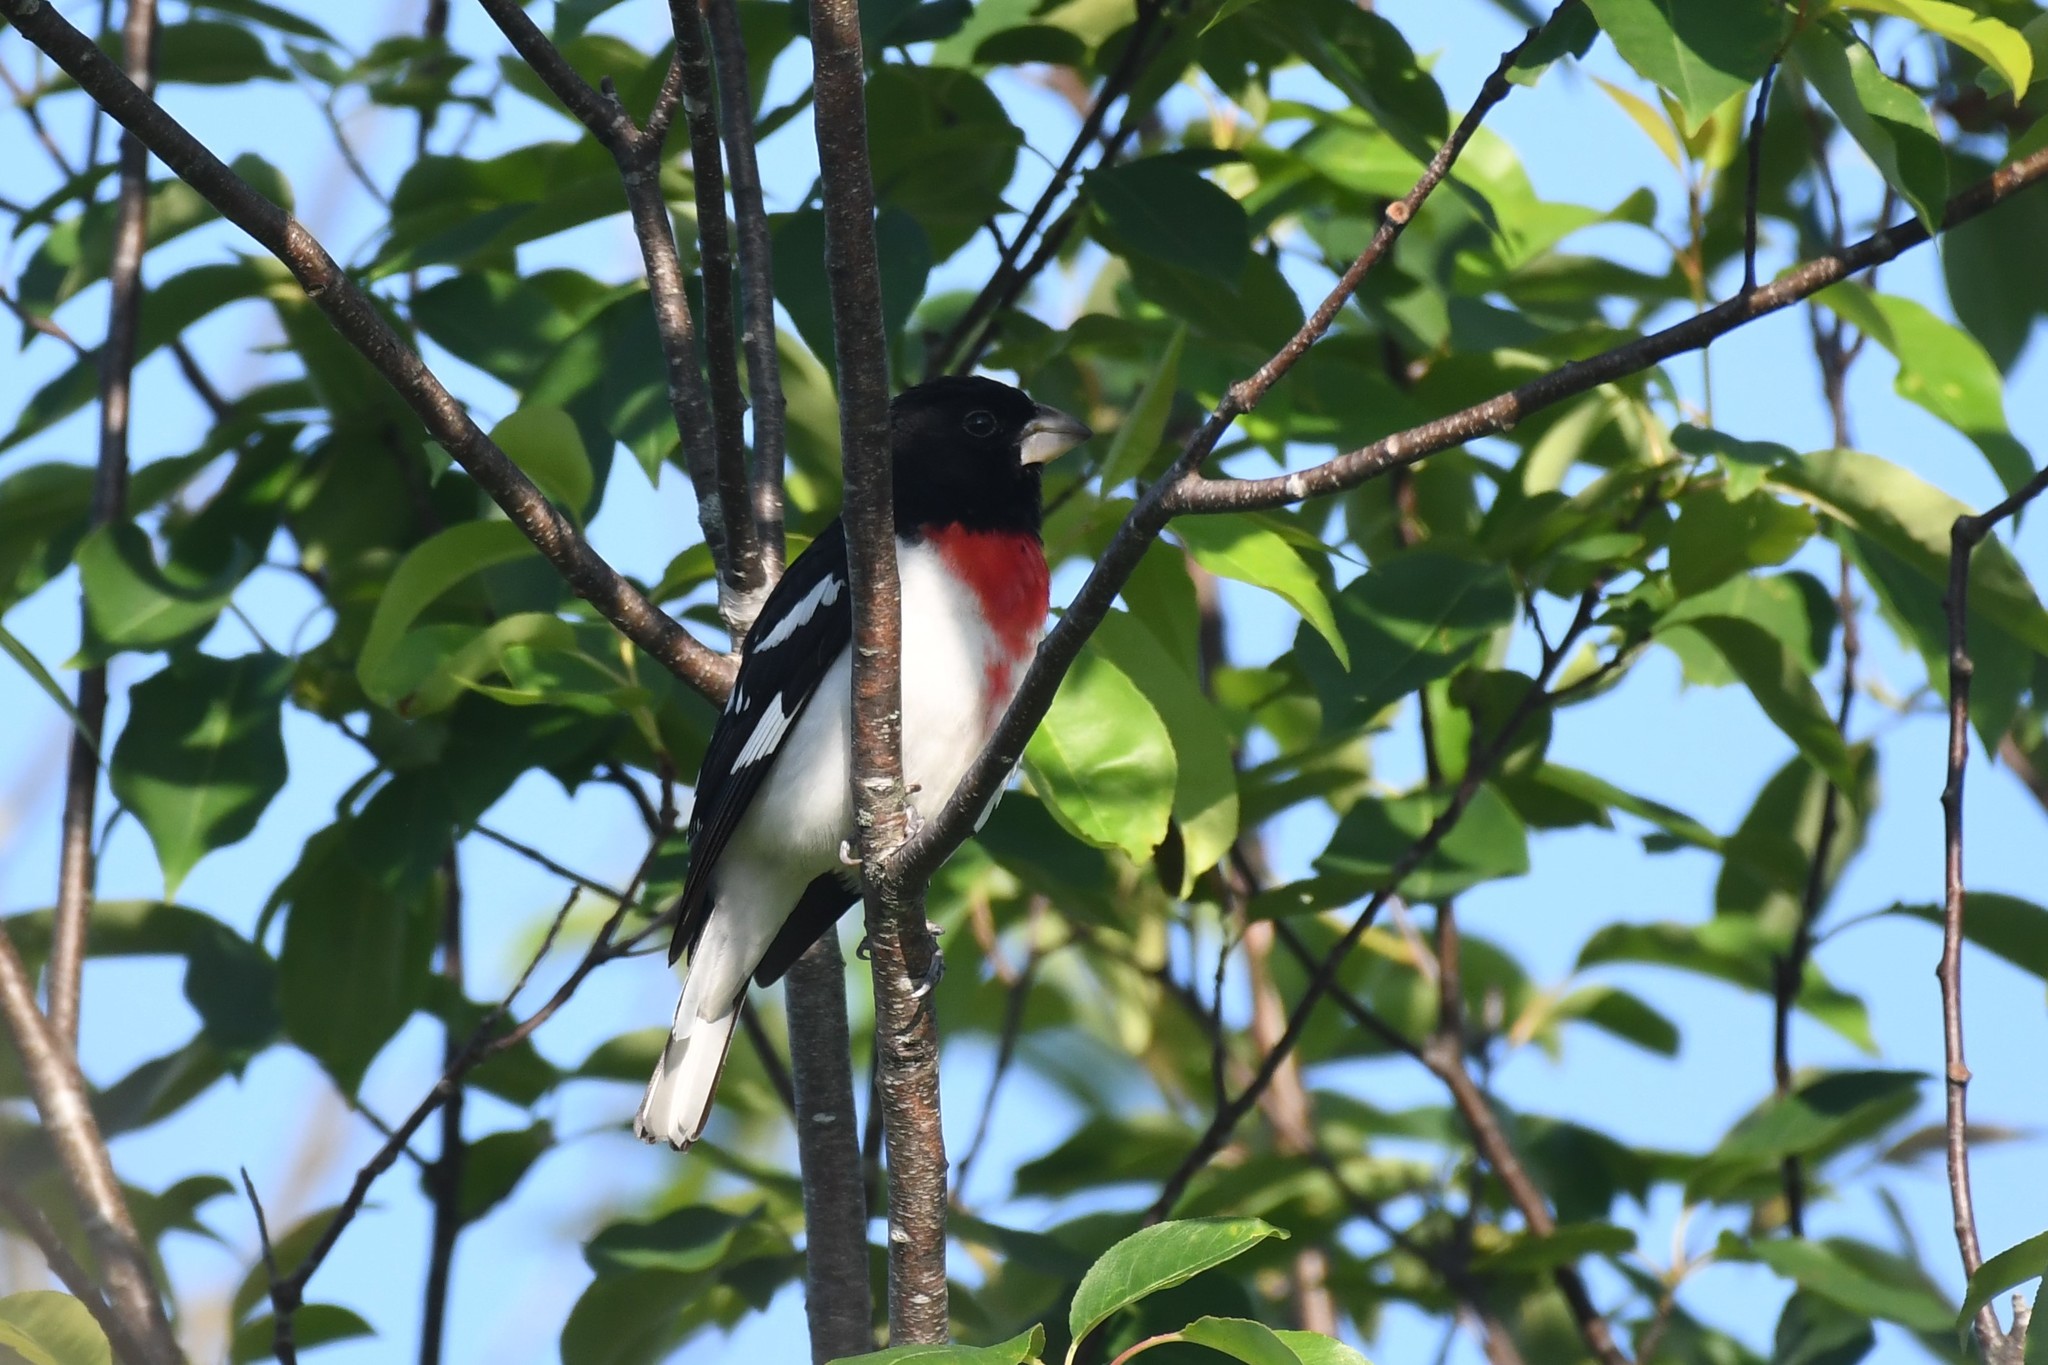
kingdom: Animalia
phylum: Chordata
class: Aves
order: Passeriformes
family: Cardinalidae
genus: Pheucticus
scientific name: Pheucticus ludovicianus
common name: Rose-breasted grosbeak
